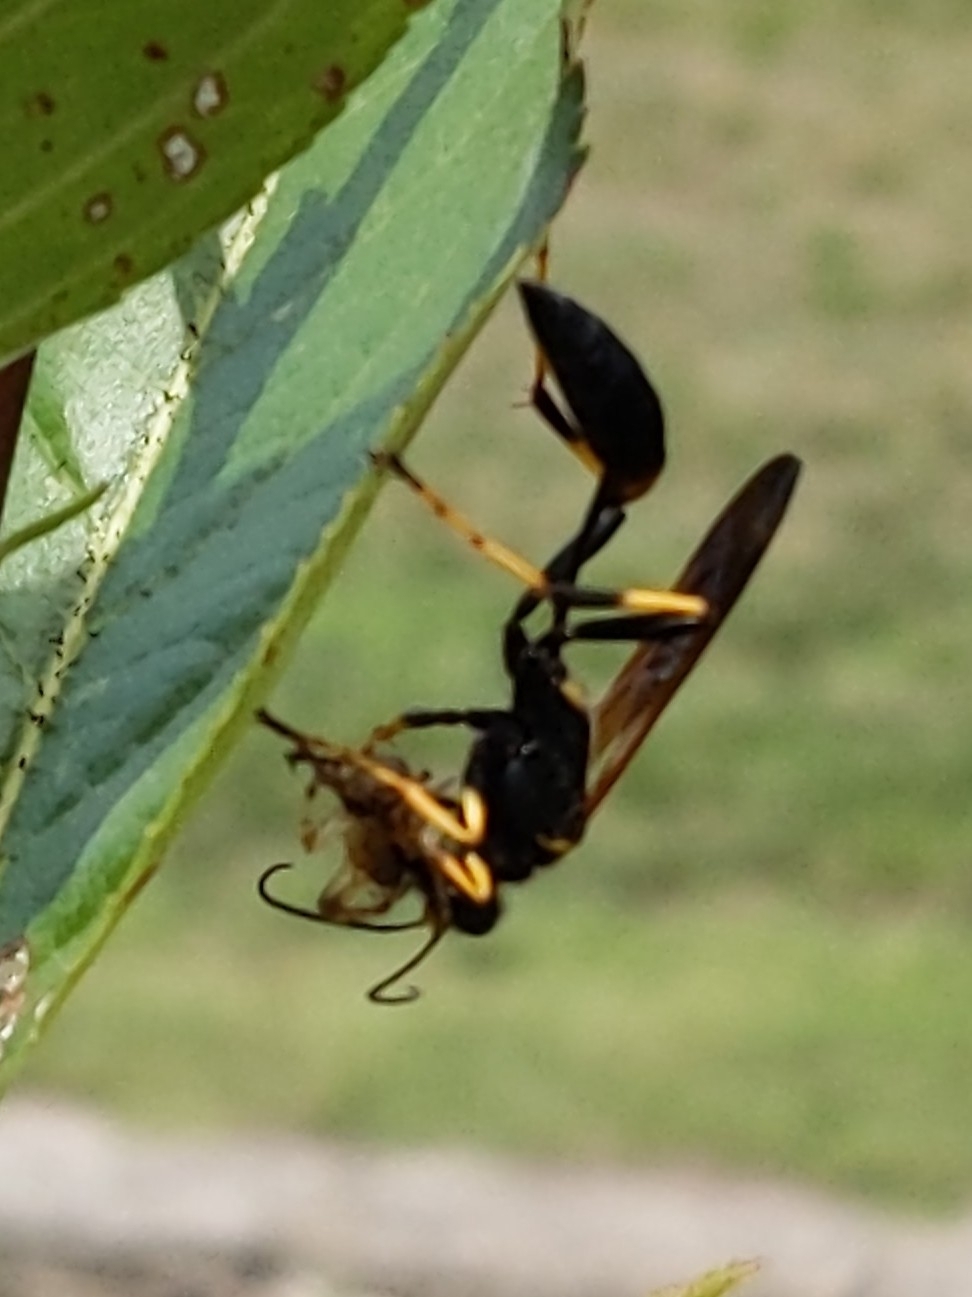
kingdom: Animalia
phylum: Arthropoda
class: Insecta
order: Hymenoptera
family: Sphecidae
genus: Sceliphron
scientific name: Sceliphron caementarium
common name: Mud dauber
